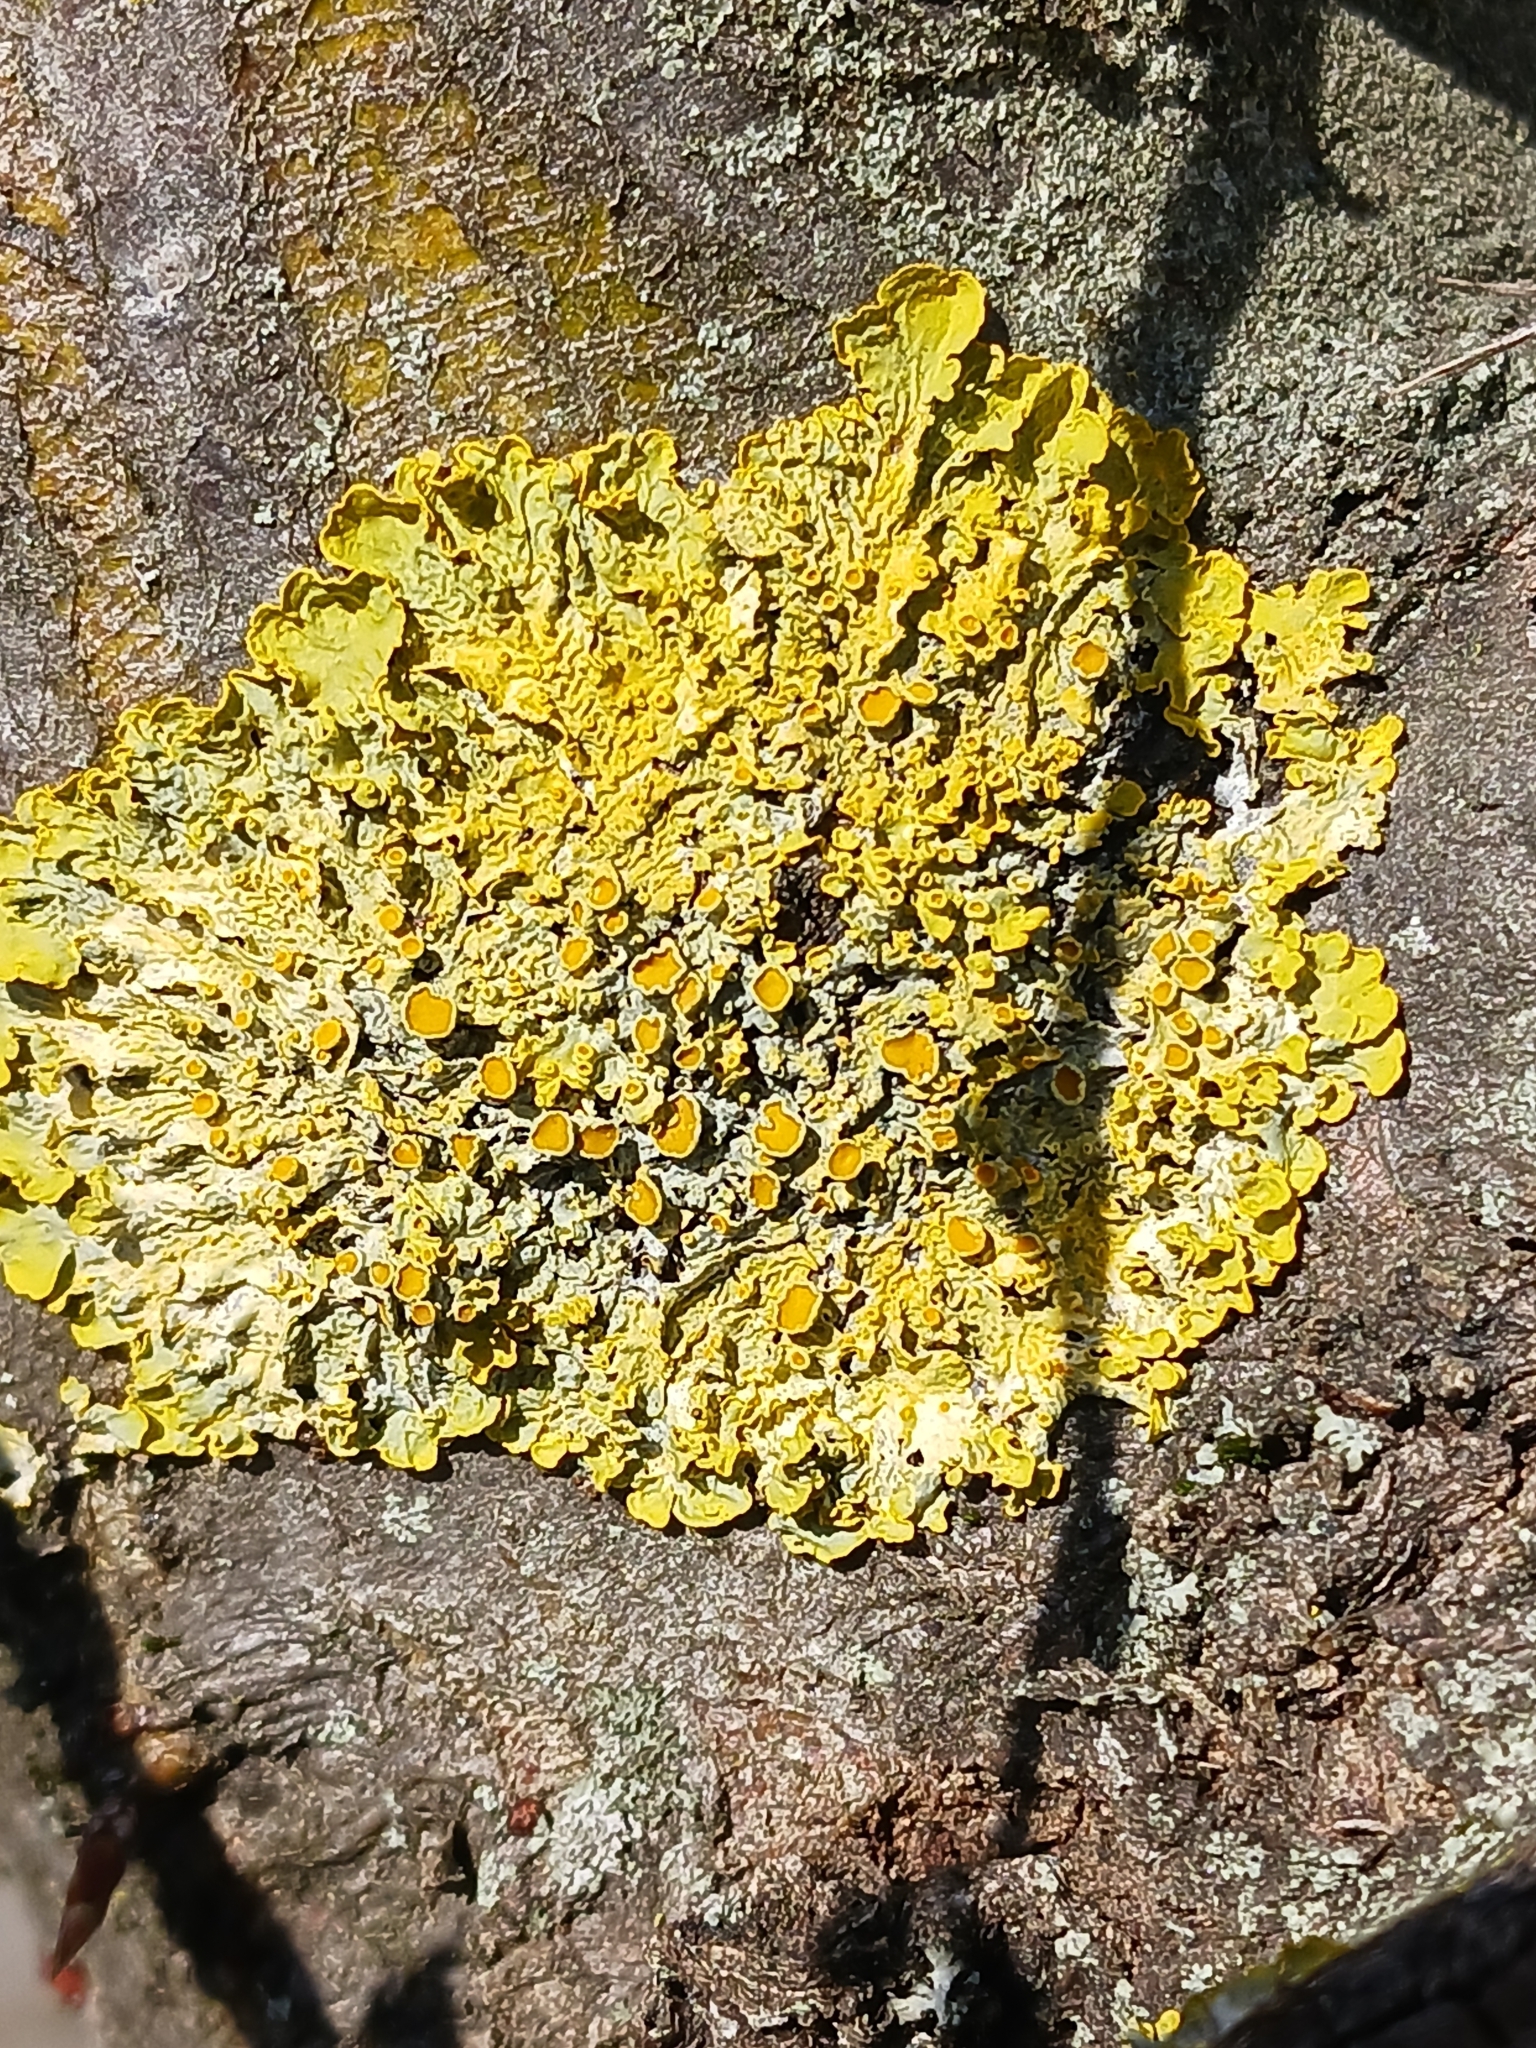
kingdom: Fungi
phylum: Ascomycota
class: Lecanoromycetes
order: Teloschistales
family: Teloschistaceae
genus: Xanthoria
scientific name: Xanthoria parietina
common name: Common orange lichen
